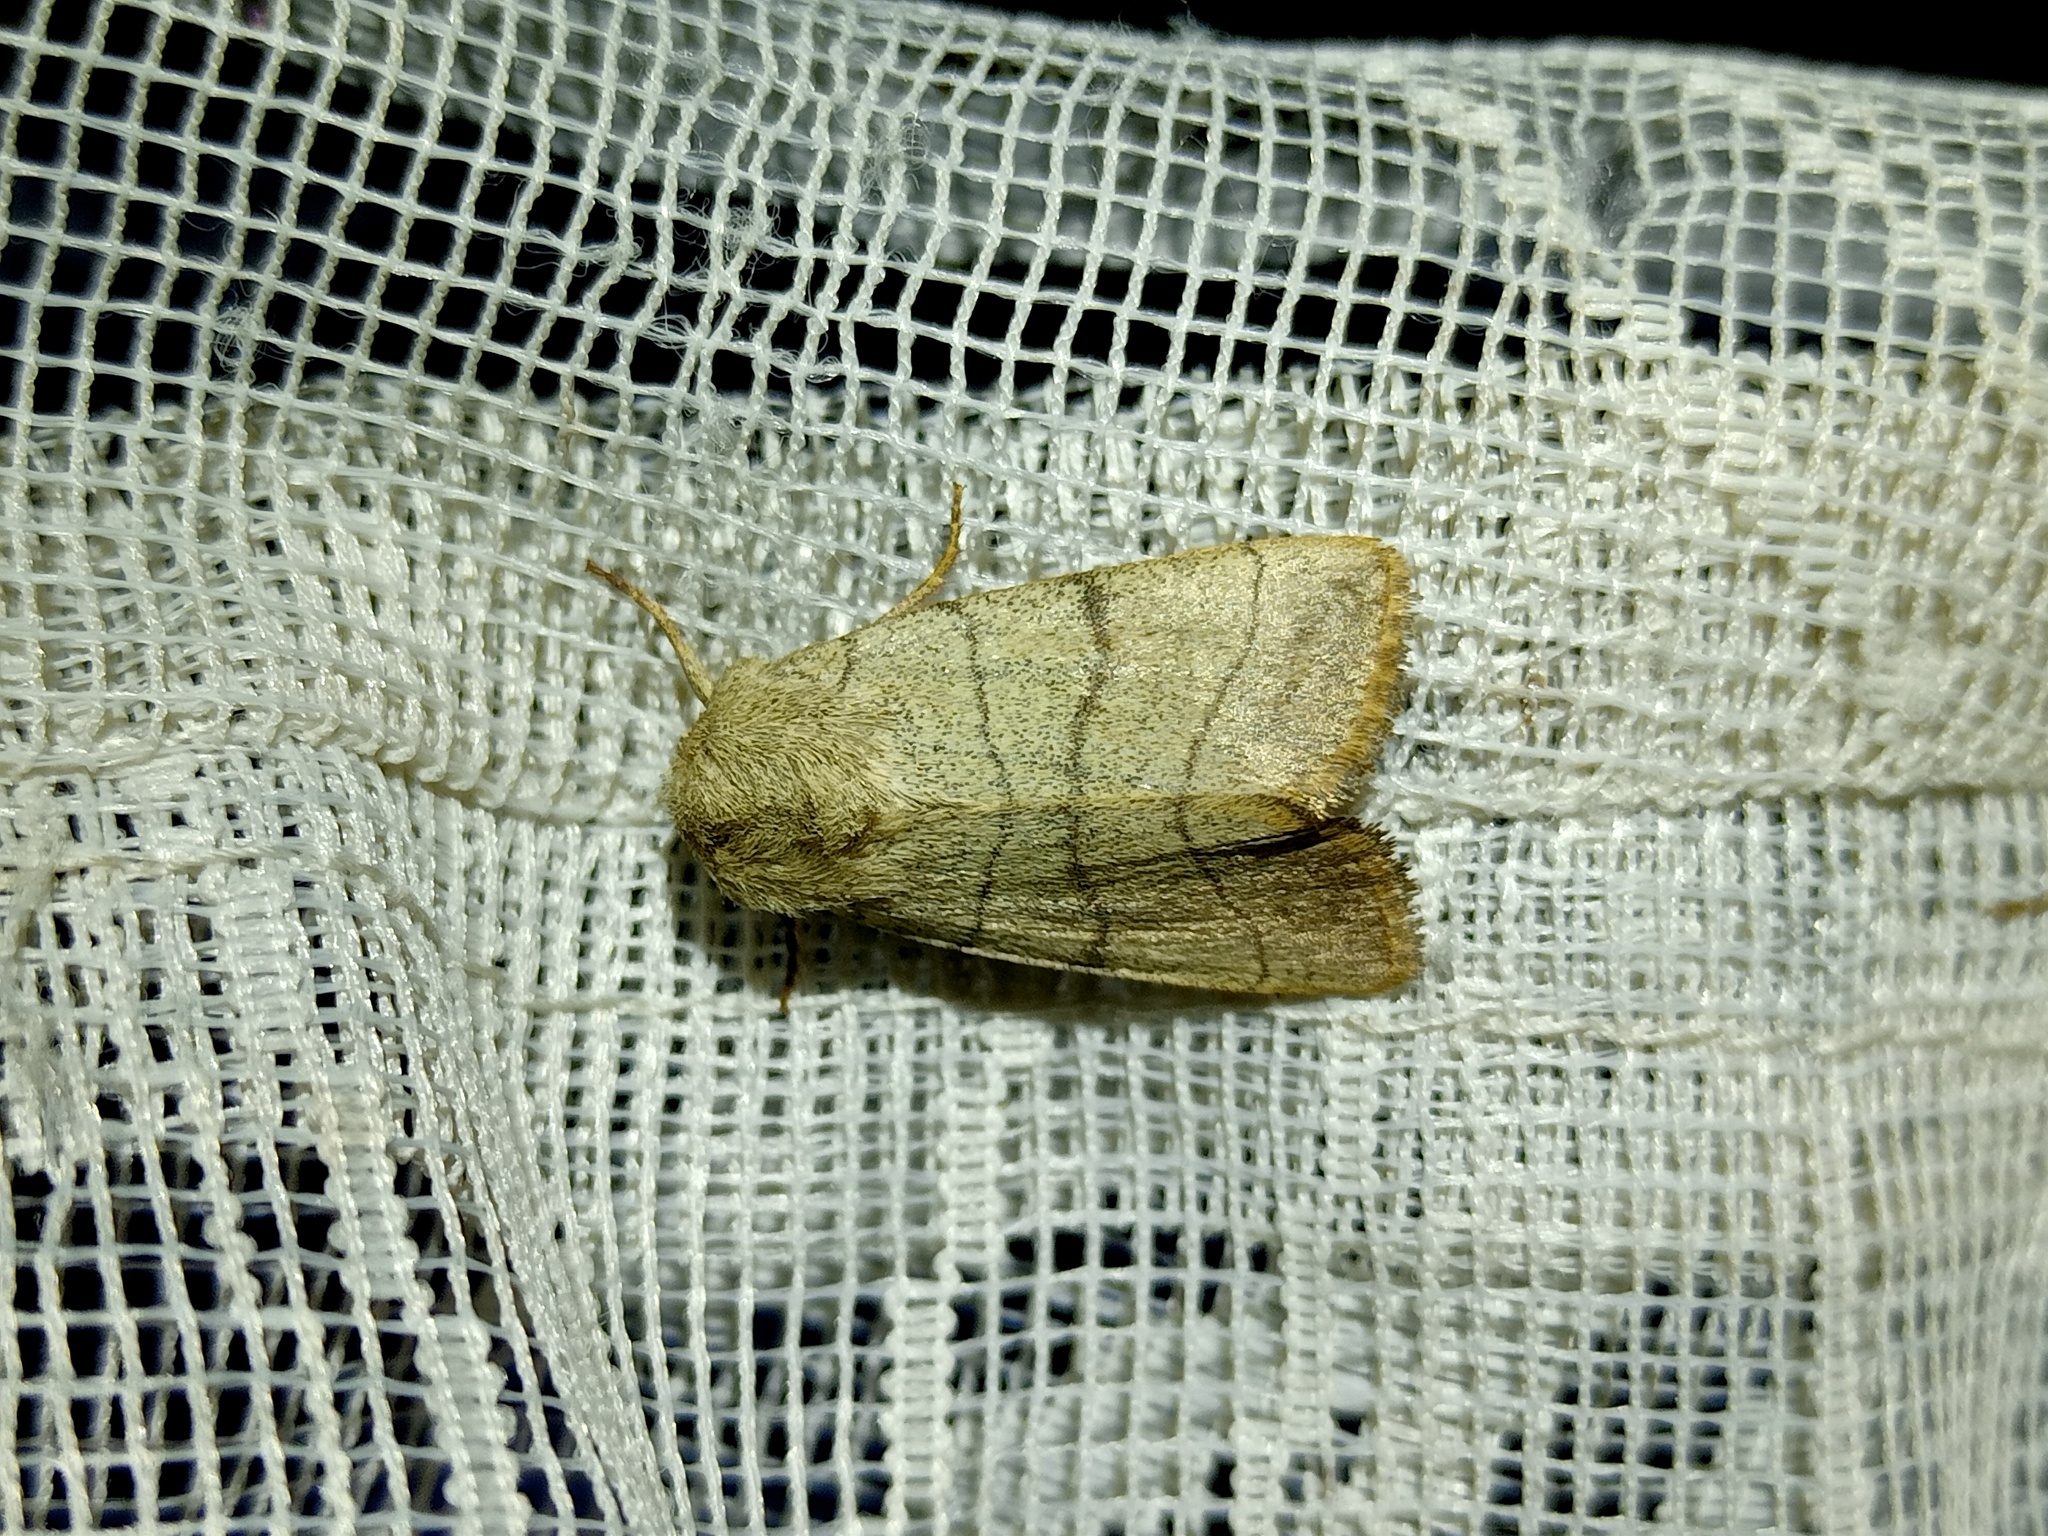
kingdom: Animalia
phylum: Arthropoda
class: Insecta
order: Lepidoptera
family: Noctuidae
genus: Charanyca
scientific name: Charanyca trigrammica
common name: Treble lines
